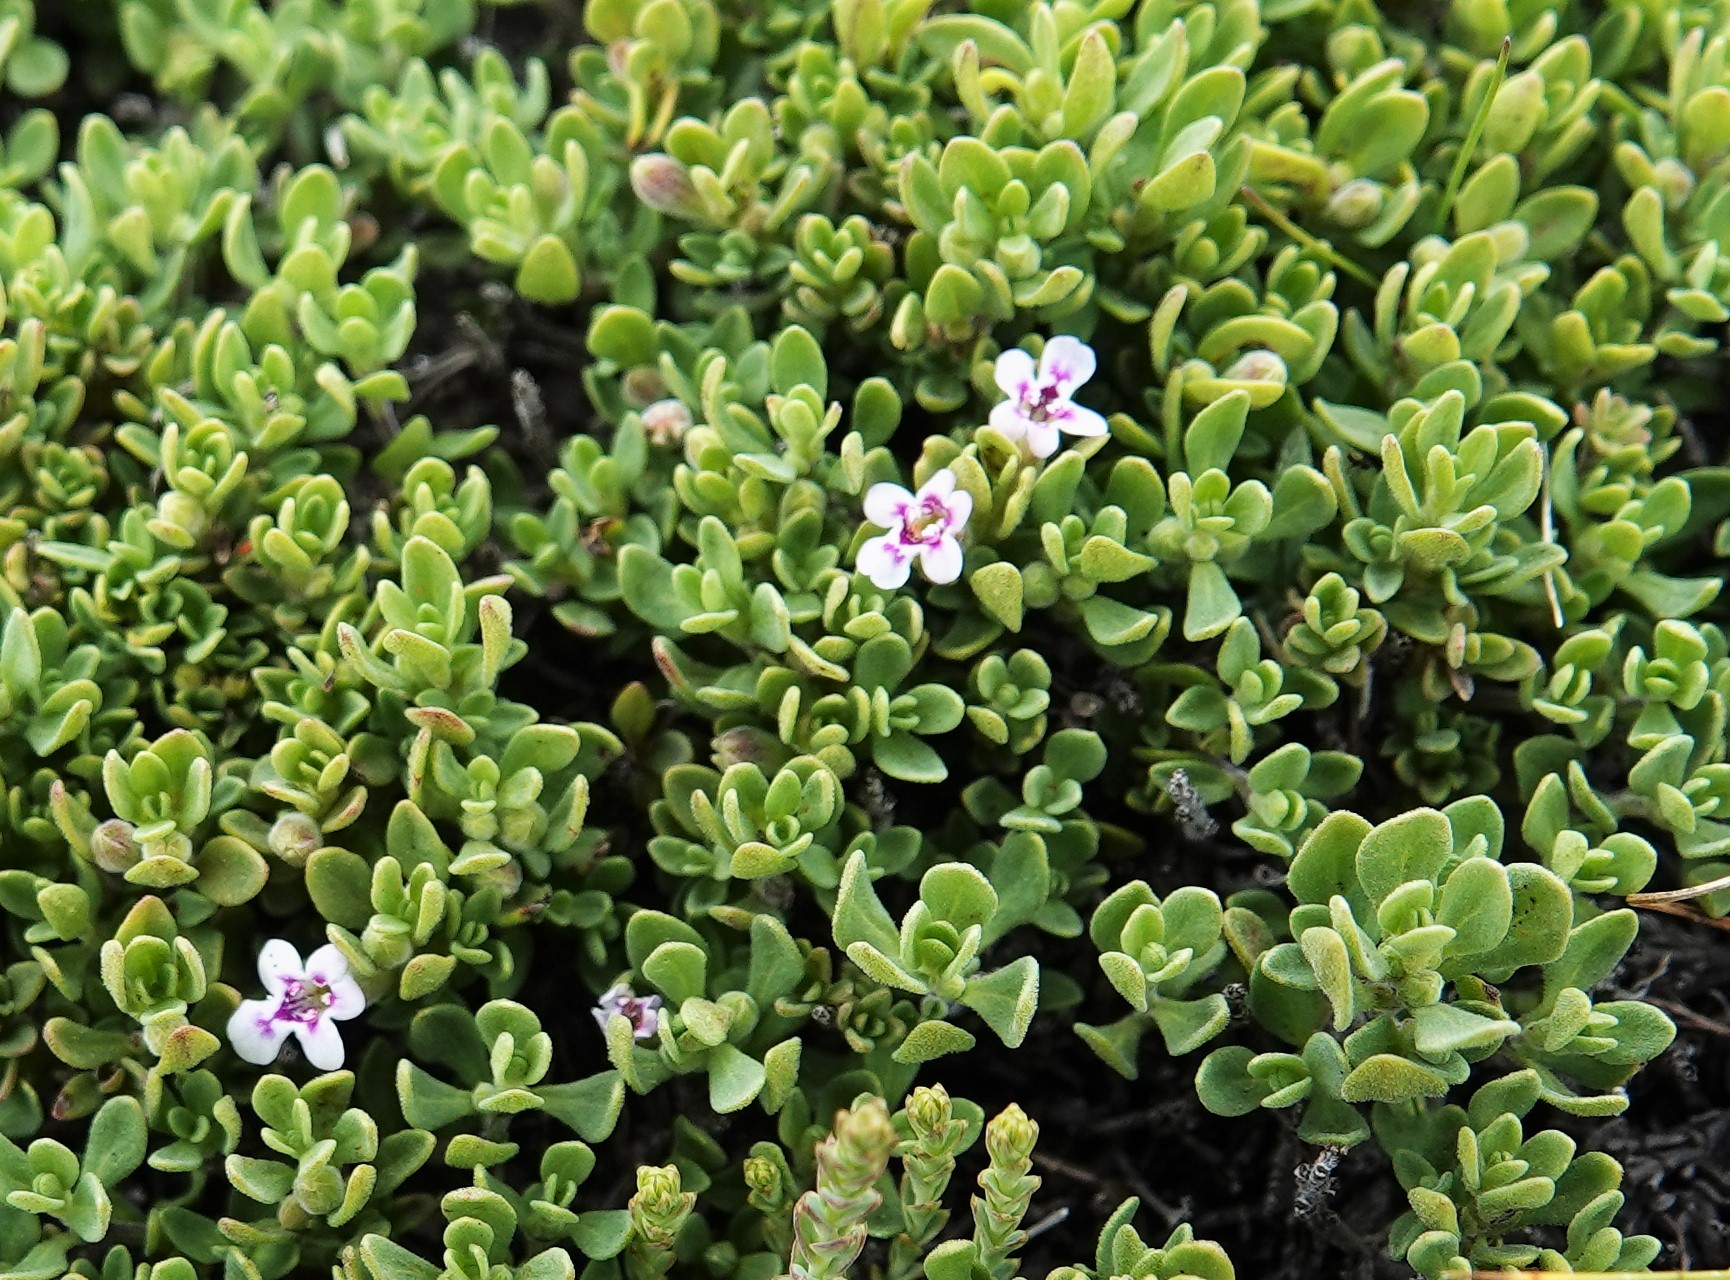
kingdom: Plantae
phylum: Tracheophyta
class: Magnoliopsida
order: Lamiales
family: Lamiaceae
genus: Clinopodium
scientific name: Clinopodium darwinii
